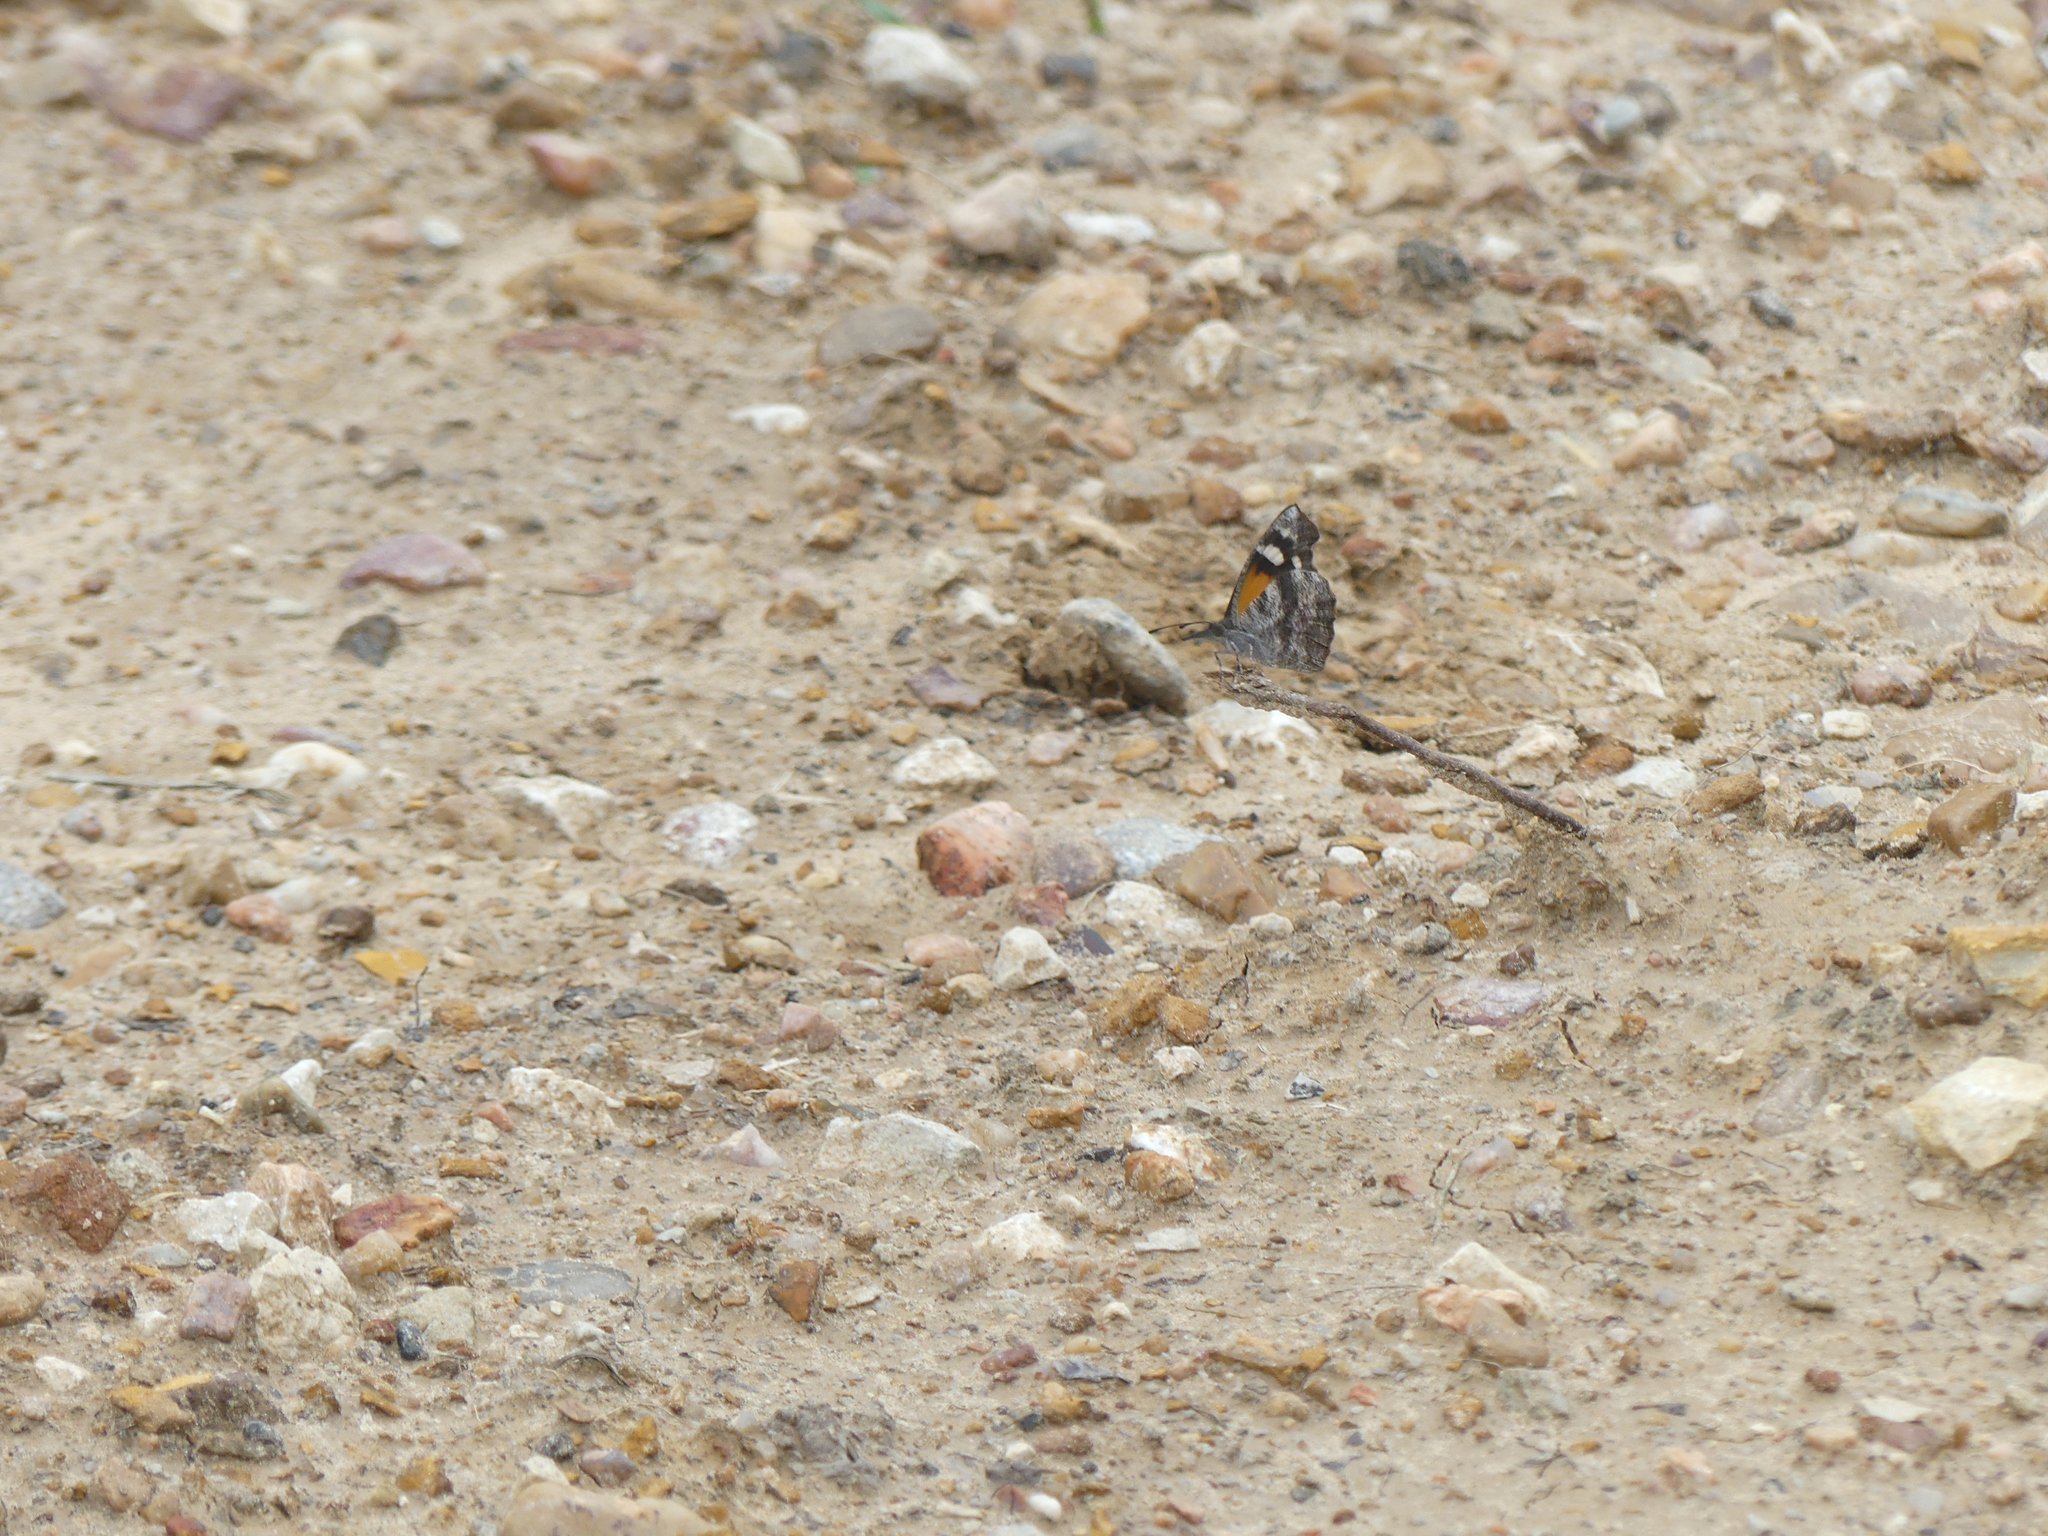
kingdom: Animalia
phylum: Arthropoda
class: Insecta
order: Lepidoptera
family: Nymphalidae
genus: Libytheana
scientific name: Libytheana carinenta
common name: American snout
